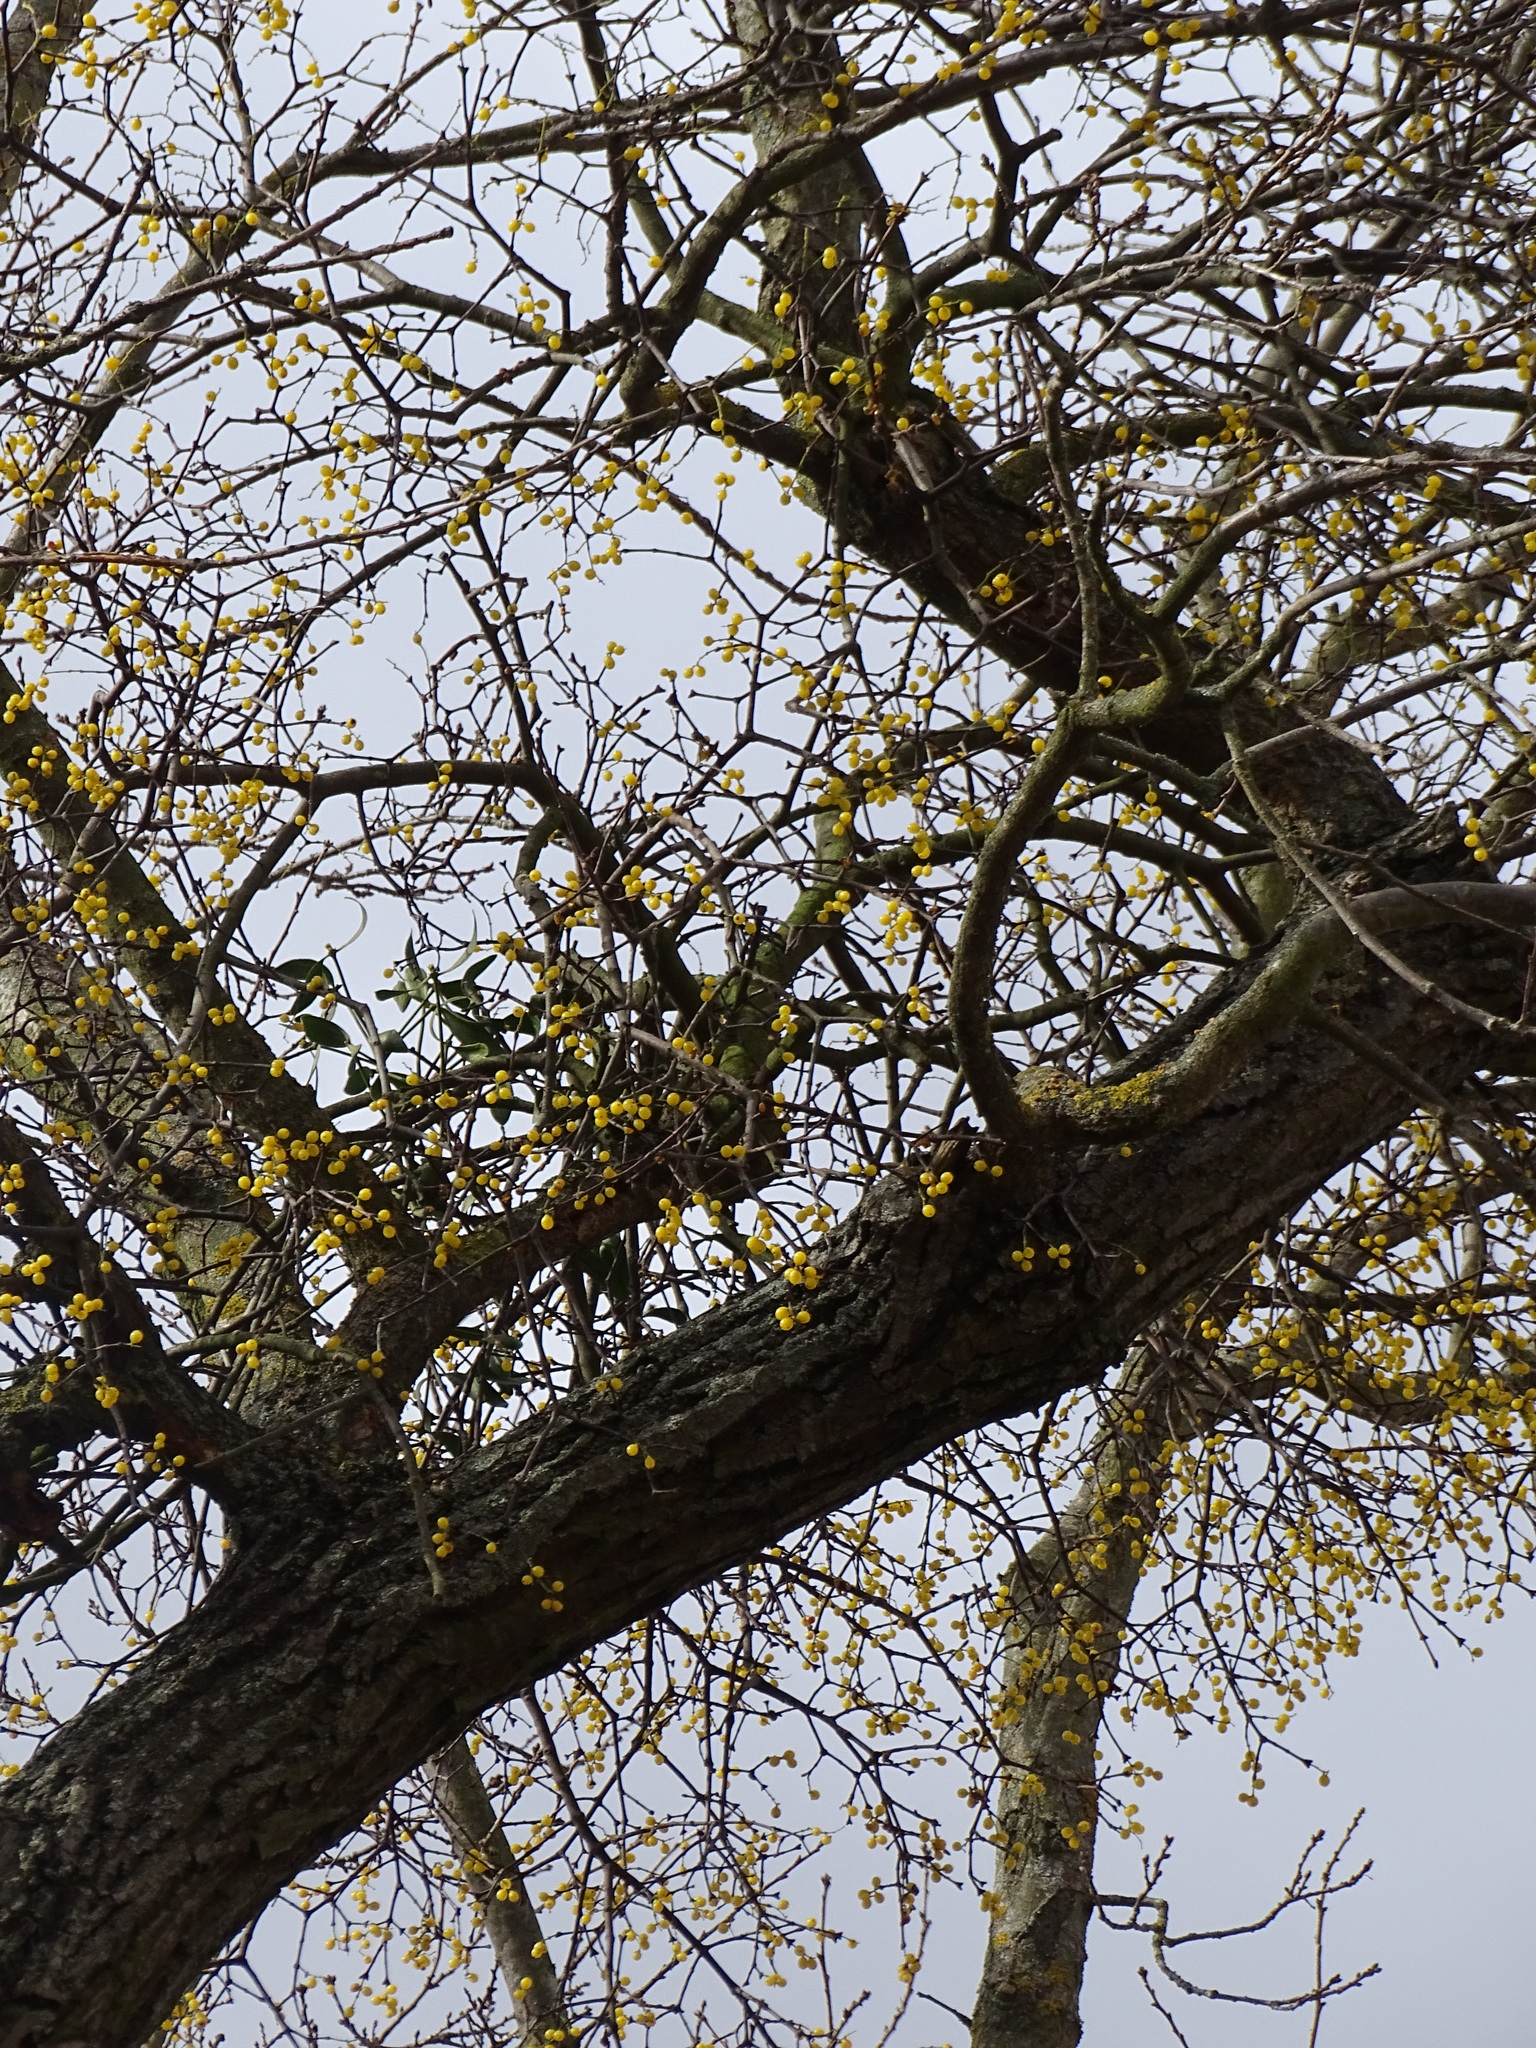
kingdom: Plantae
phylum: Tracheophyta
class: Magnoliopsida
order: Santalales
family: Loranthaceae
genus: Loranthus
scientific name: Loranthus europaeus
